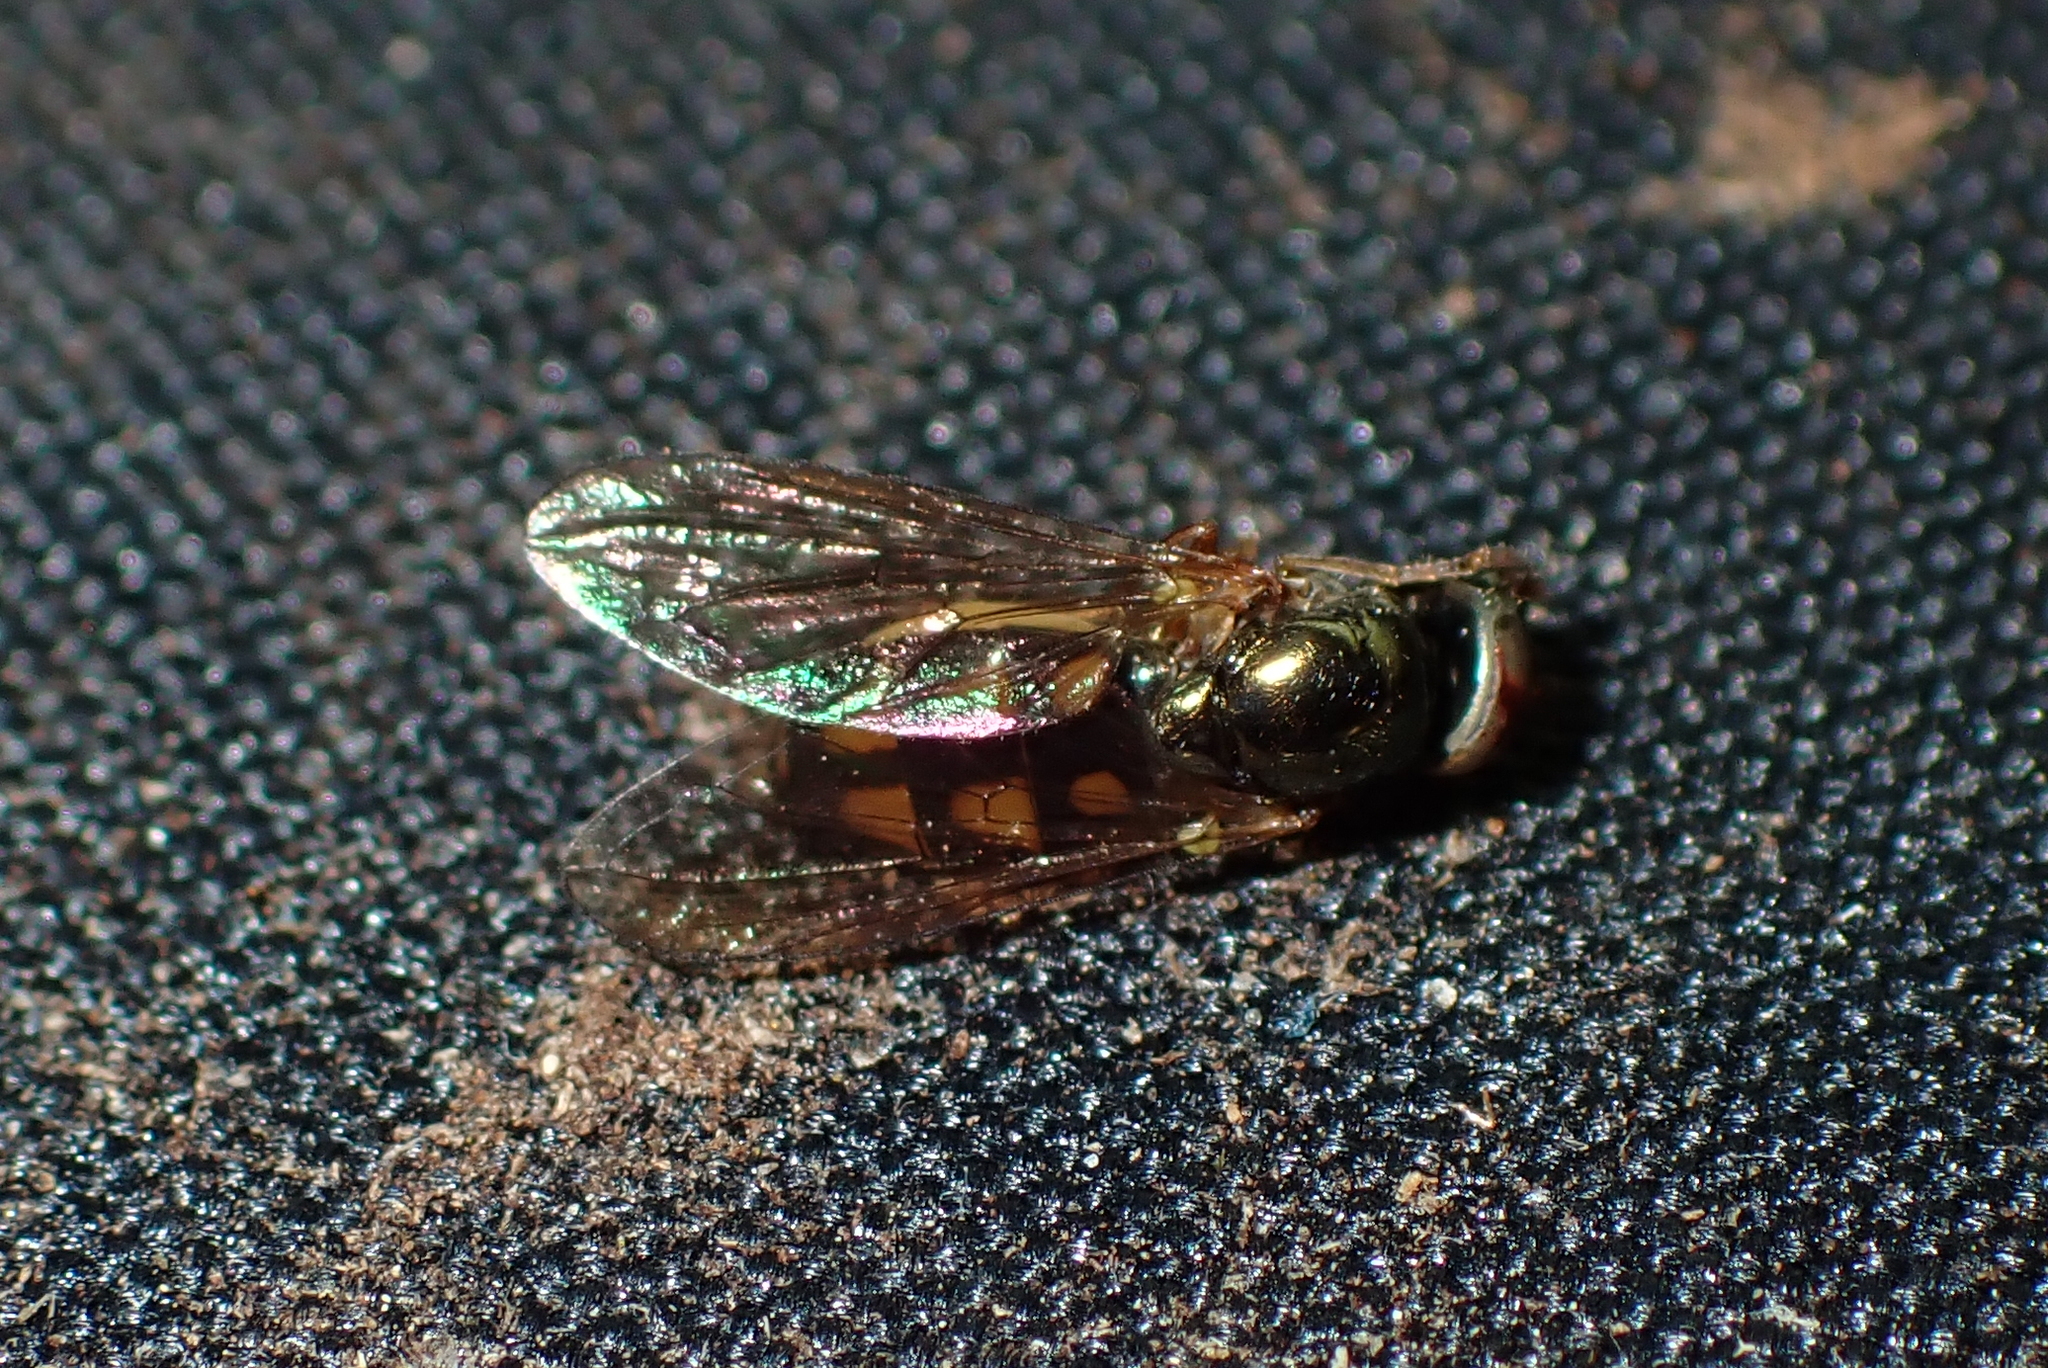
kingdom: Animalia
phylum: Arthropoda
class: Insecta
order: Diptera
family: Syrphidae
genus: Melanostoma
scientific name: Melanostoma fasciatum
